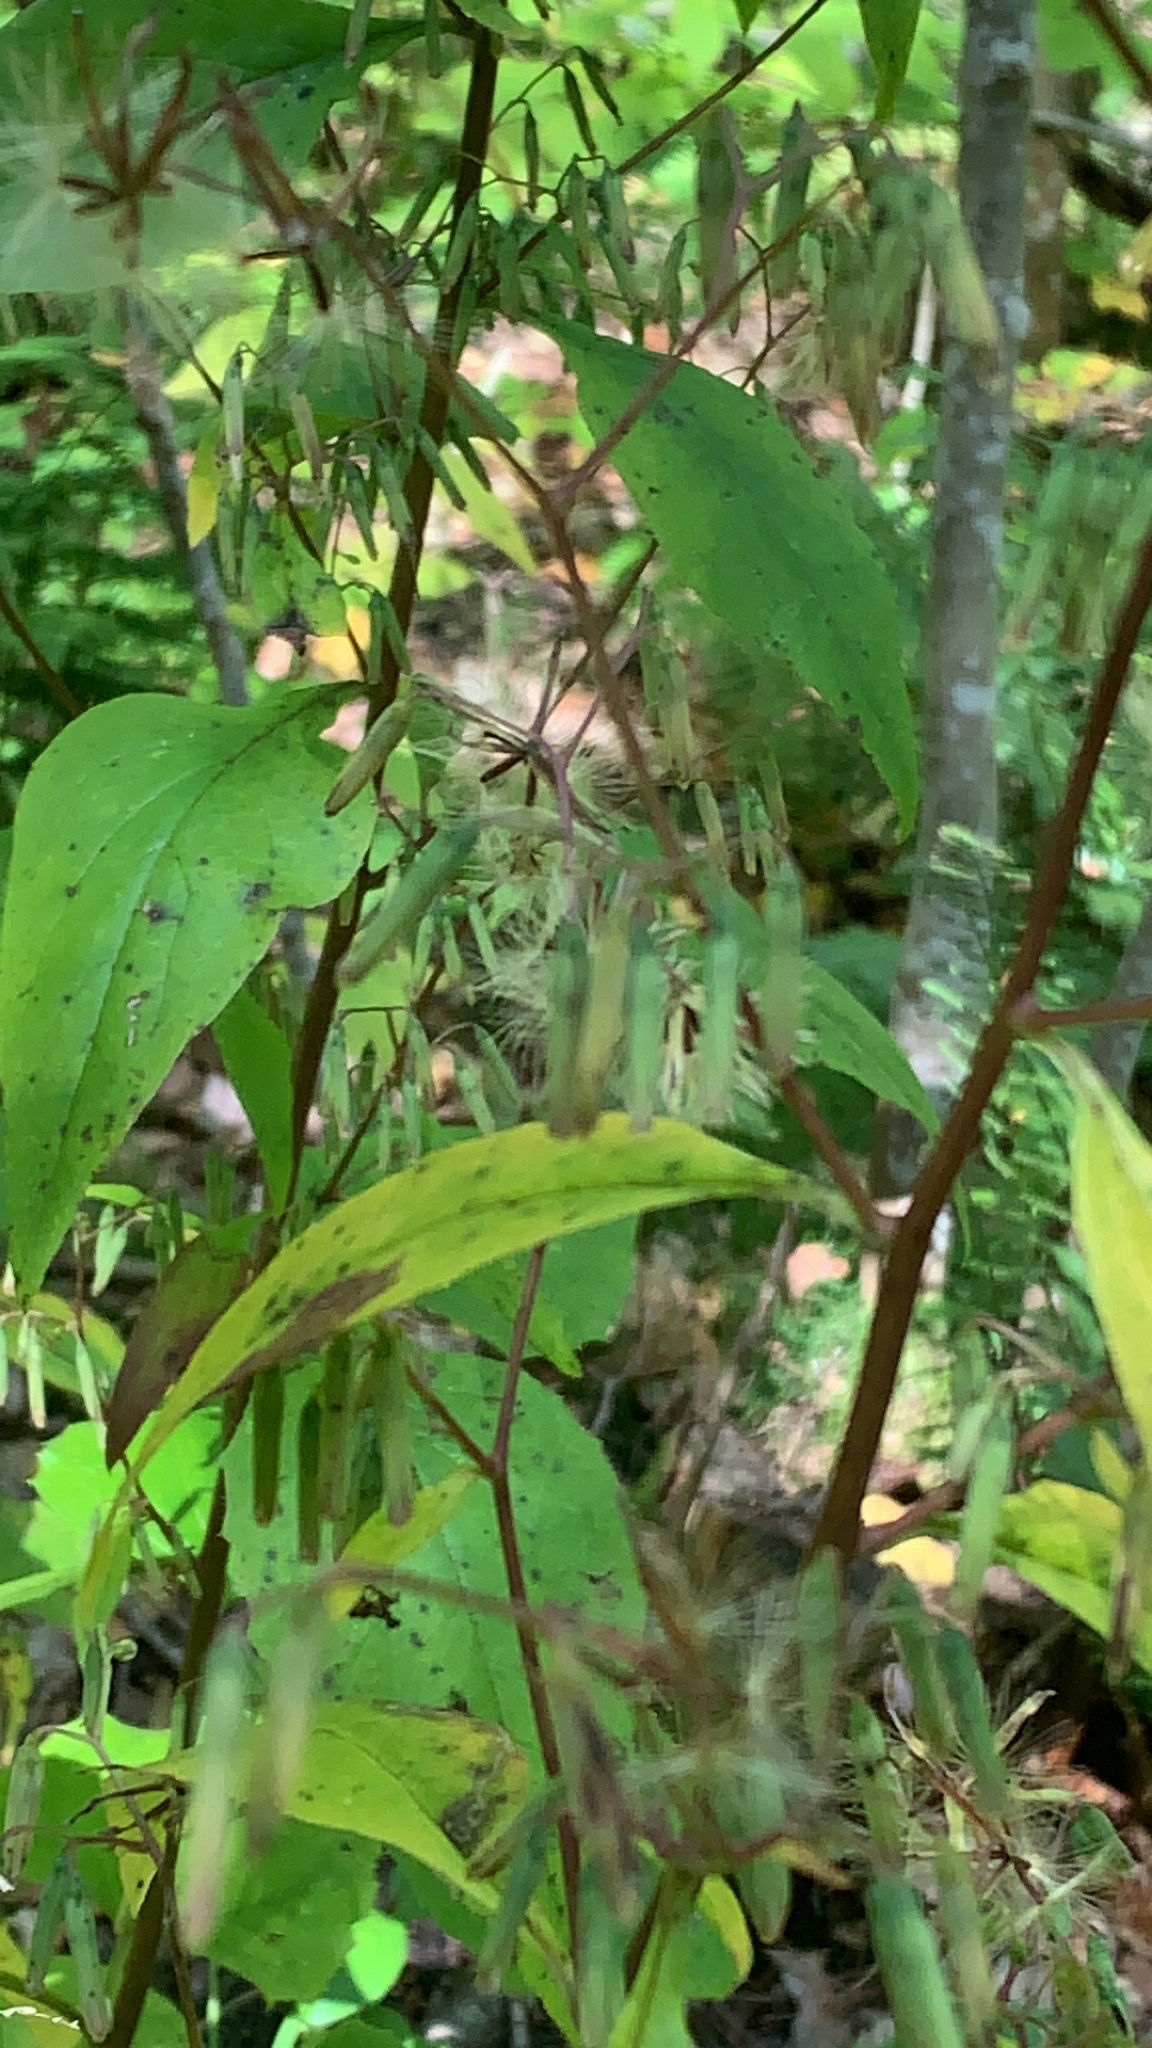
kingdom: Plantae
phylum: Tracheophyta
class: Magnoliopsida
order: Asterales
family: Asteraceae
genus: Nabalus
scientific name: Nabalus altissima
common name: Tall rattlesnakeroot
